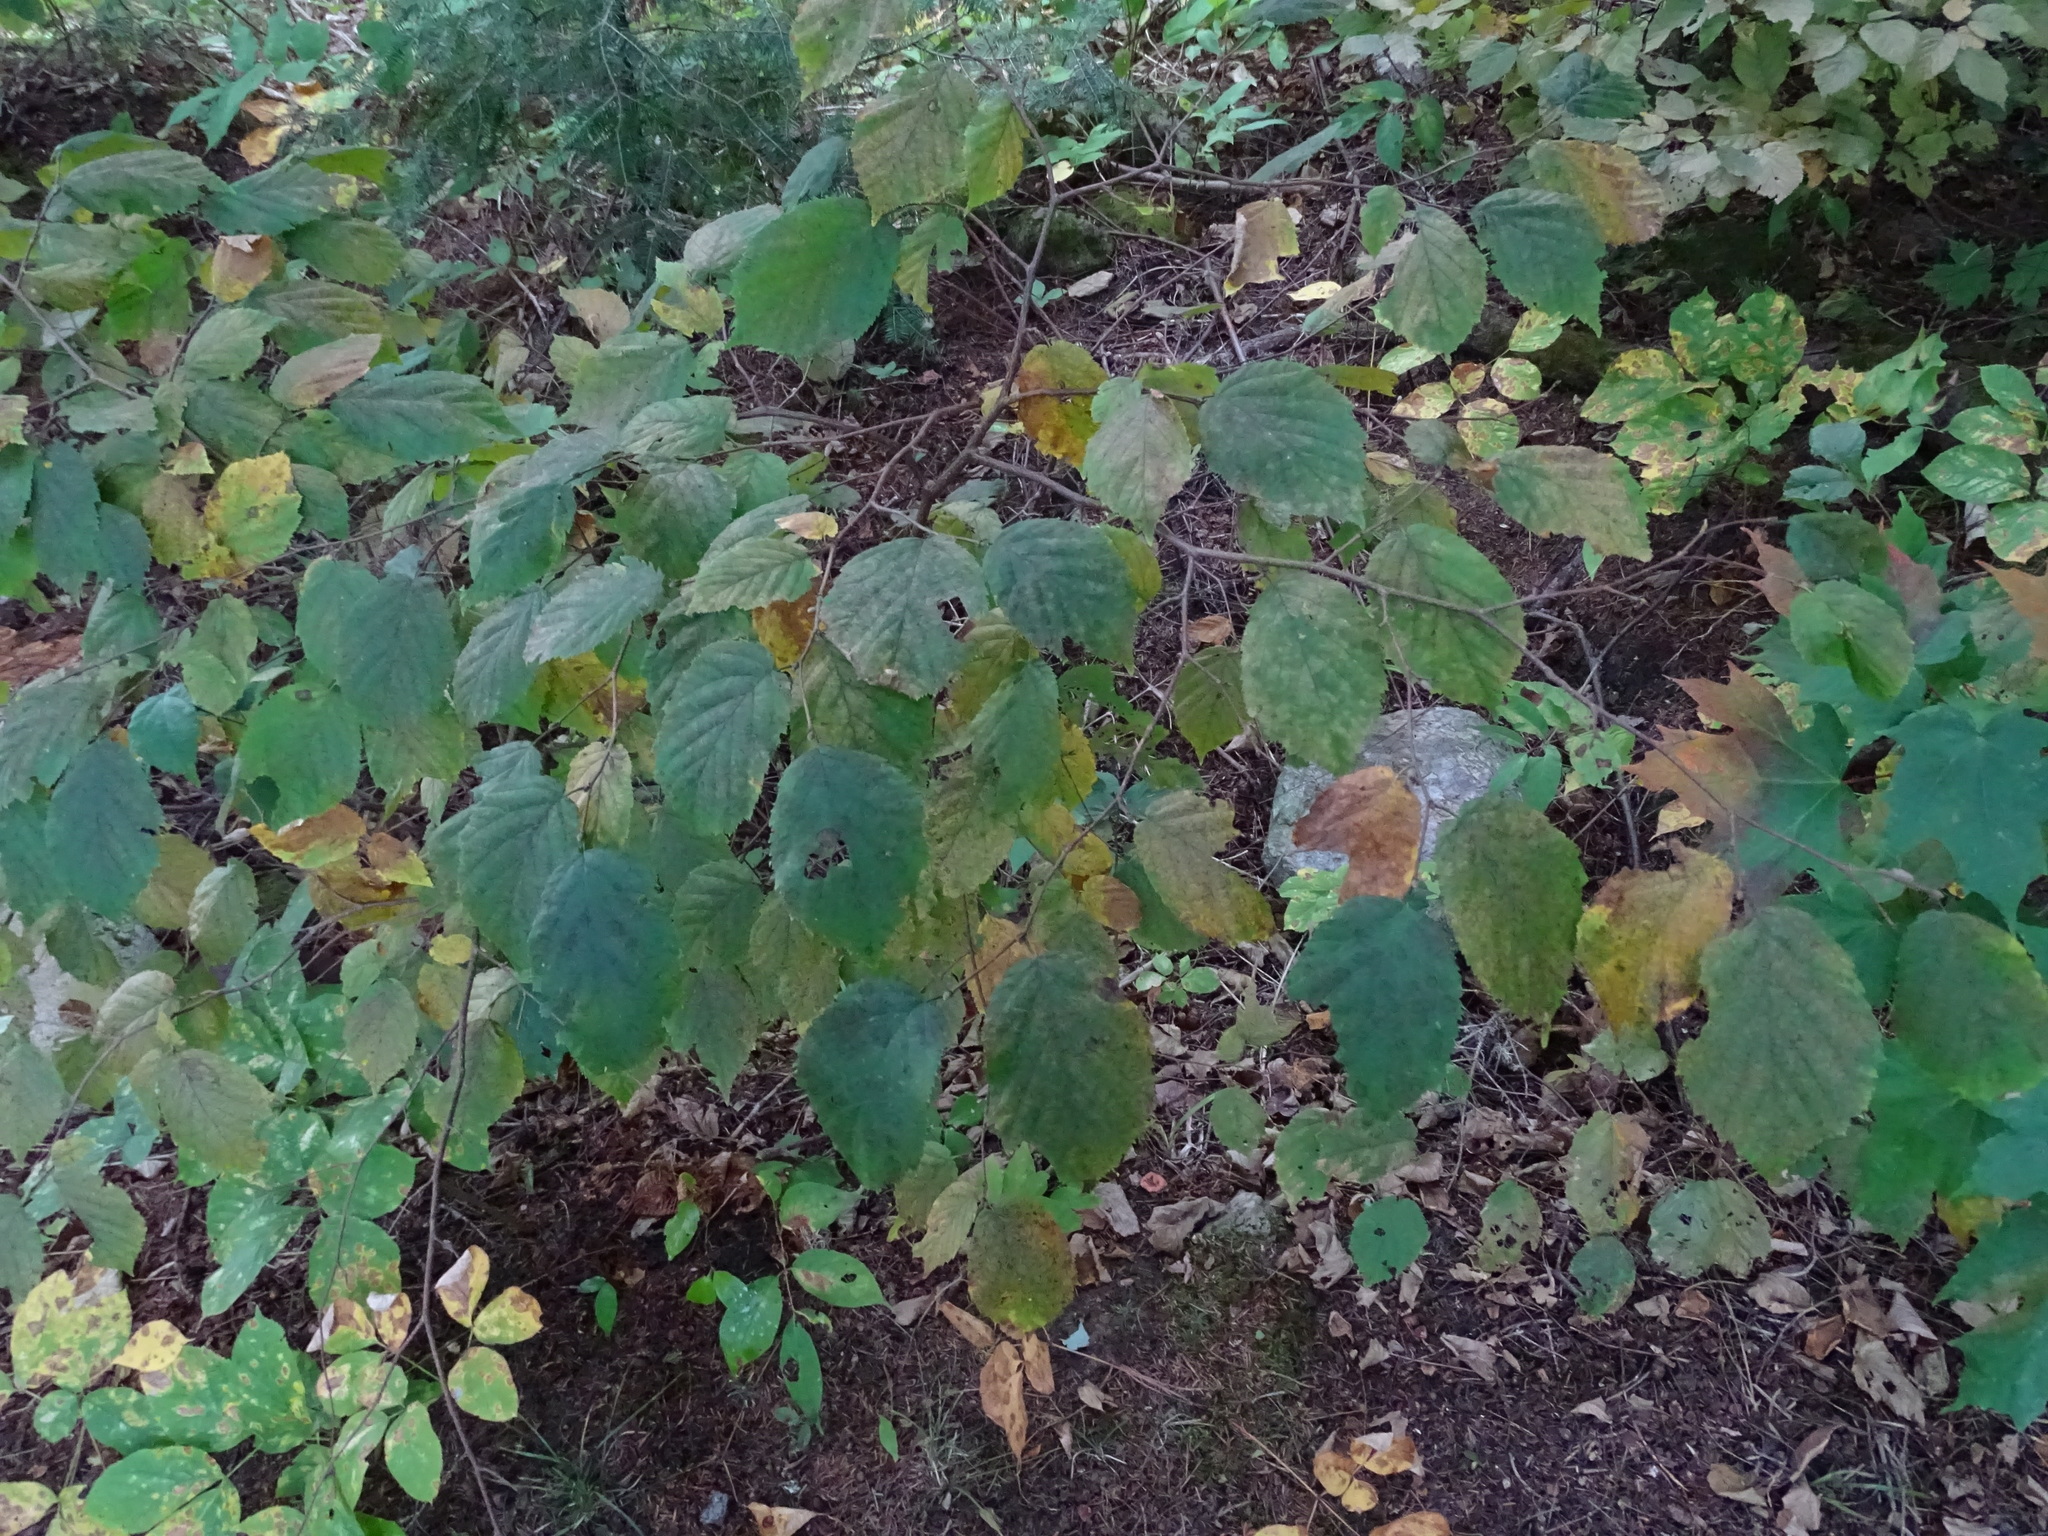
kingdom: Plantae
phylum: Tracheophyta
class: Magnoliopsida
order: Fagales
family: Betulaceae
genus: Corylus
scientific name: Corylus cornuta
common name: Beaked hazel
